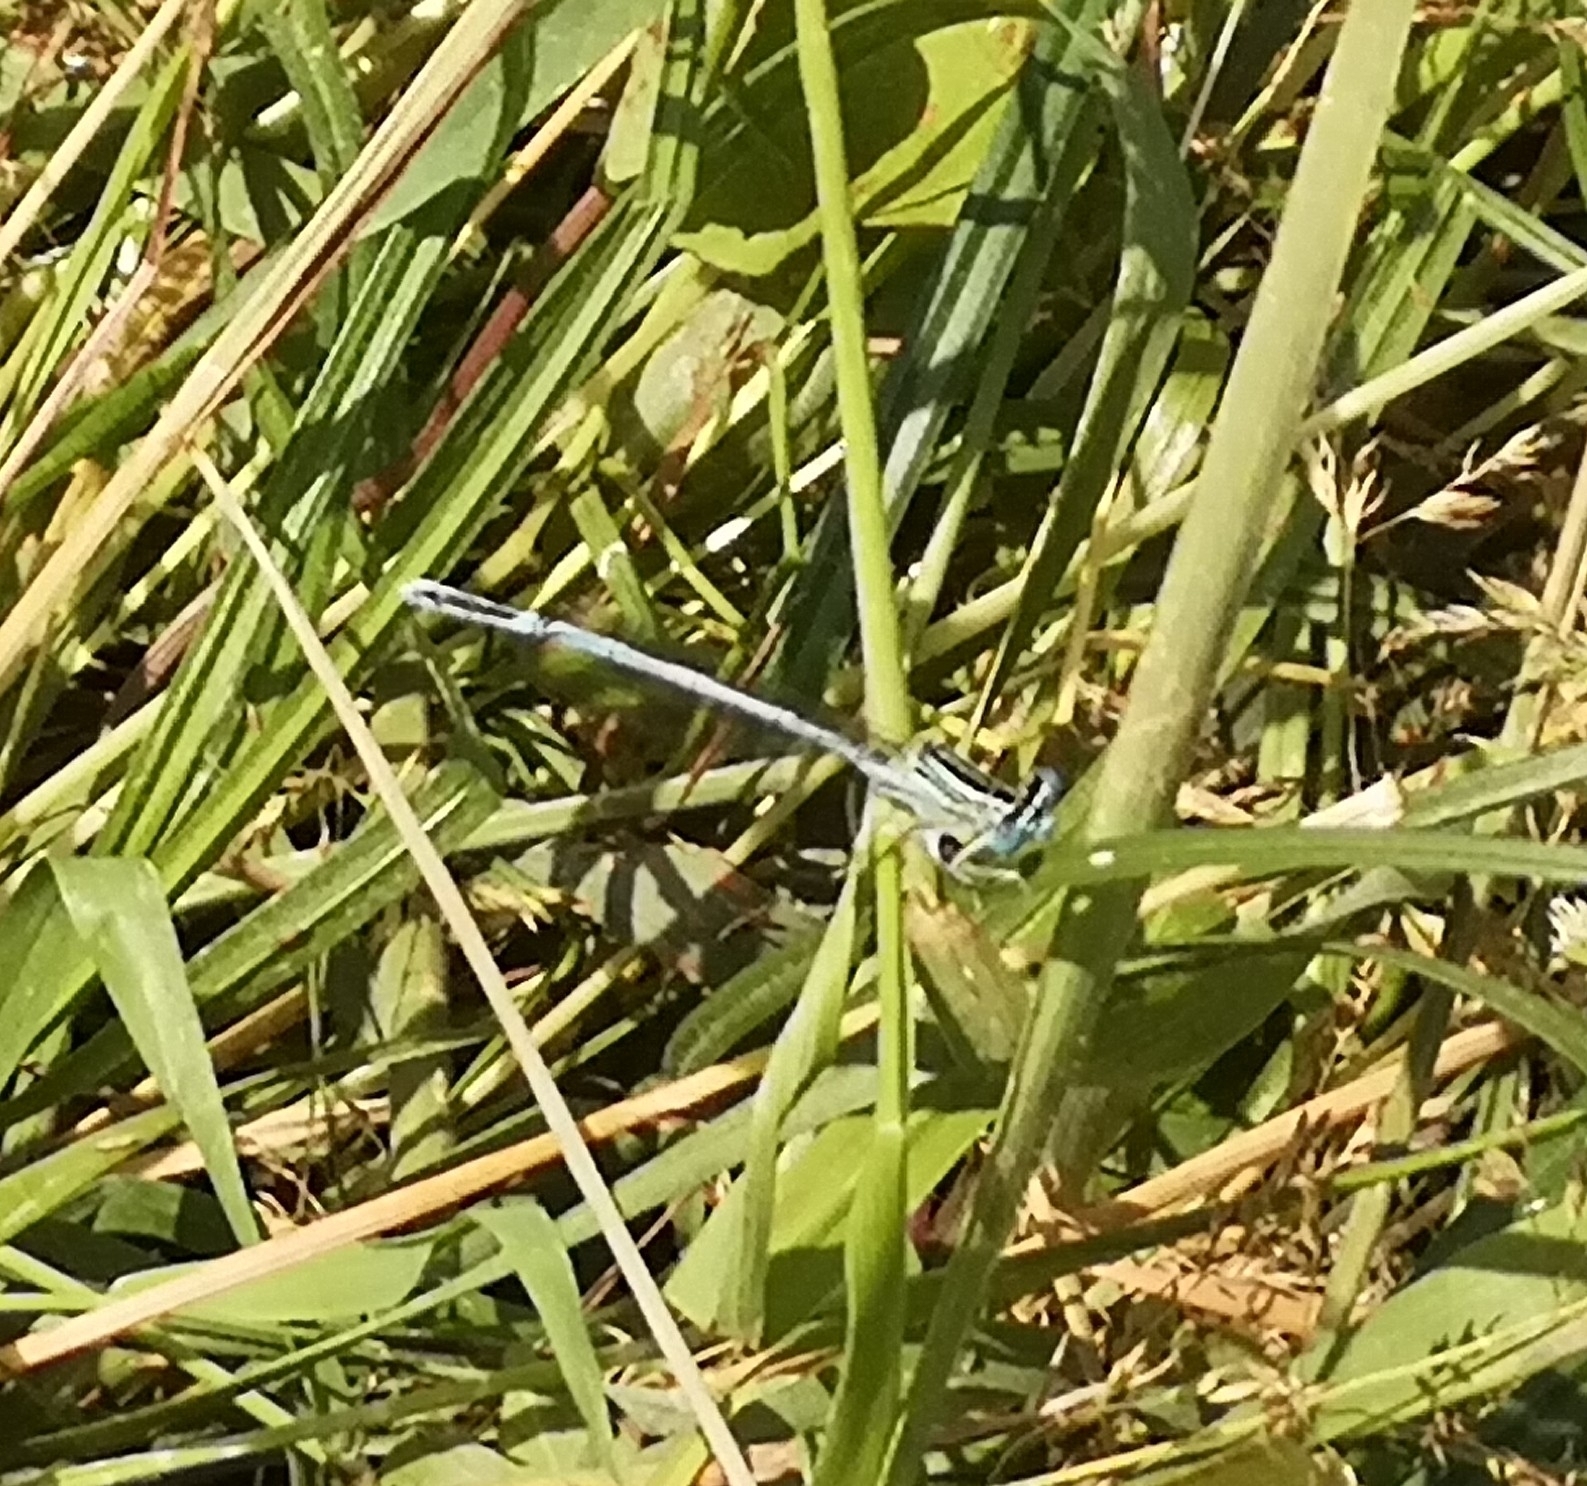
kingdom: Animalia
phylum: Arthropoda
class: Insecta
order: Odonata
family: Platycnemididae
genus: Platycnemis
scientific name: Platycnemis pennipes
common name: White-legged damselfly
